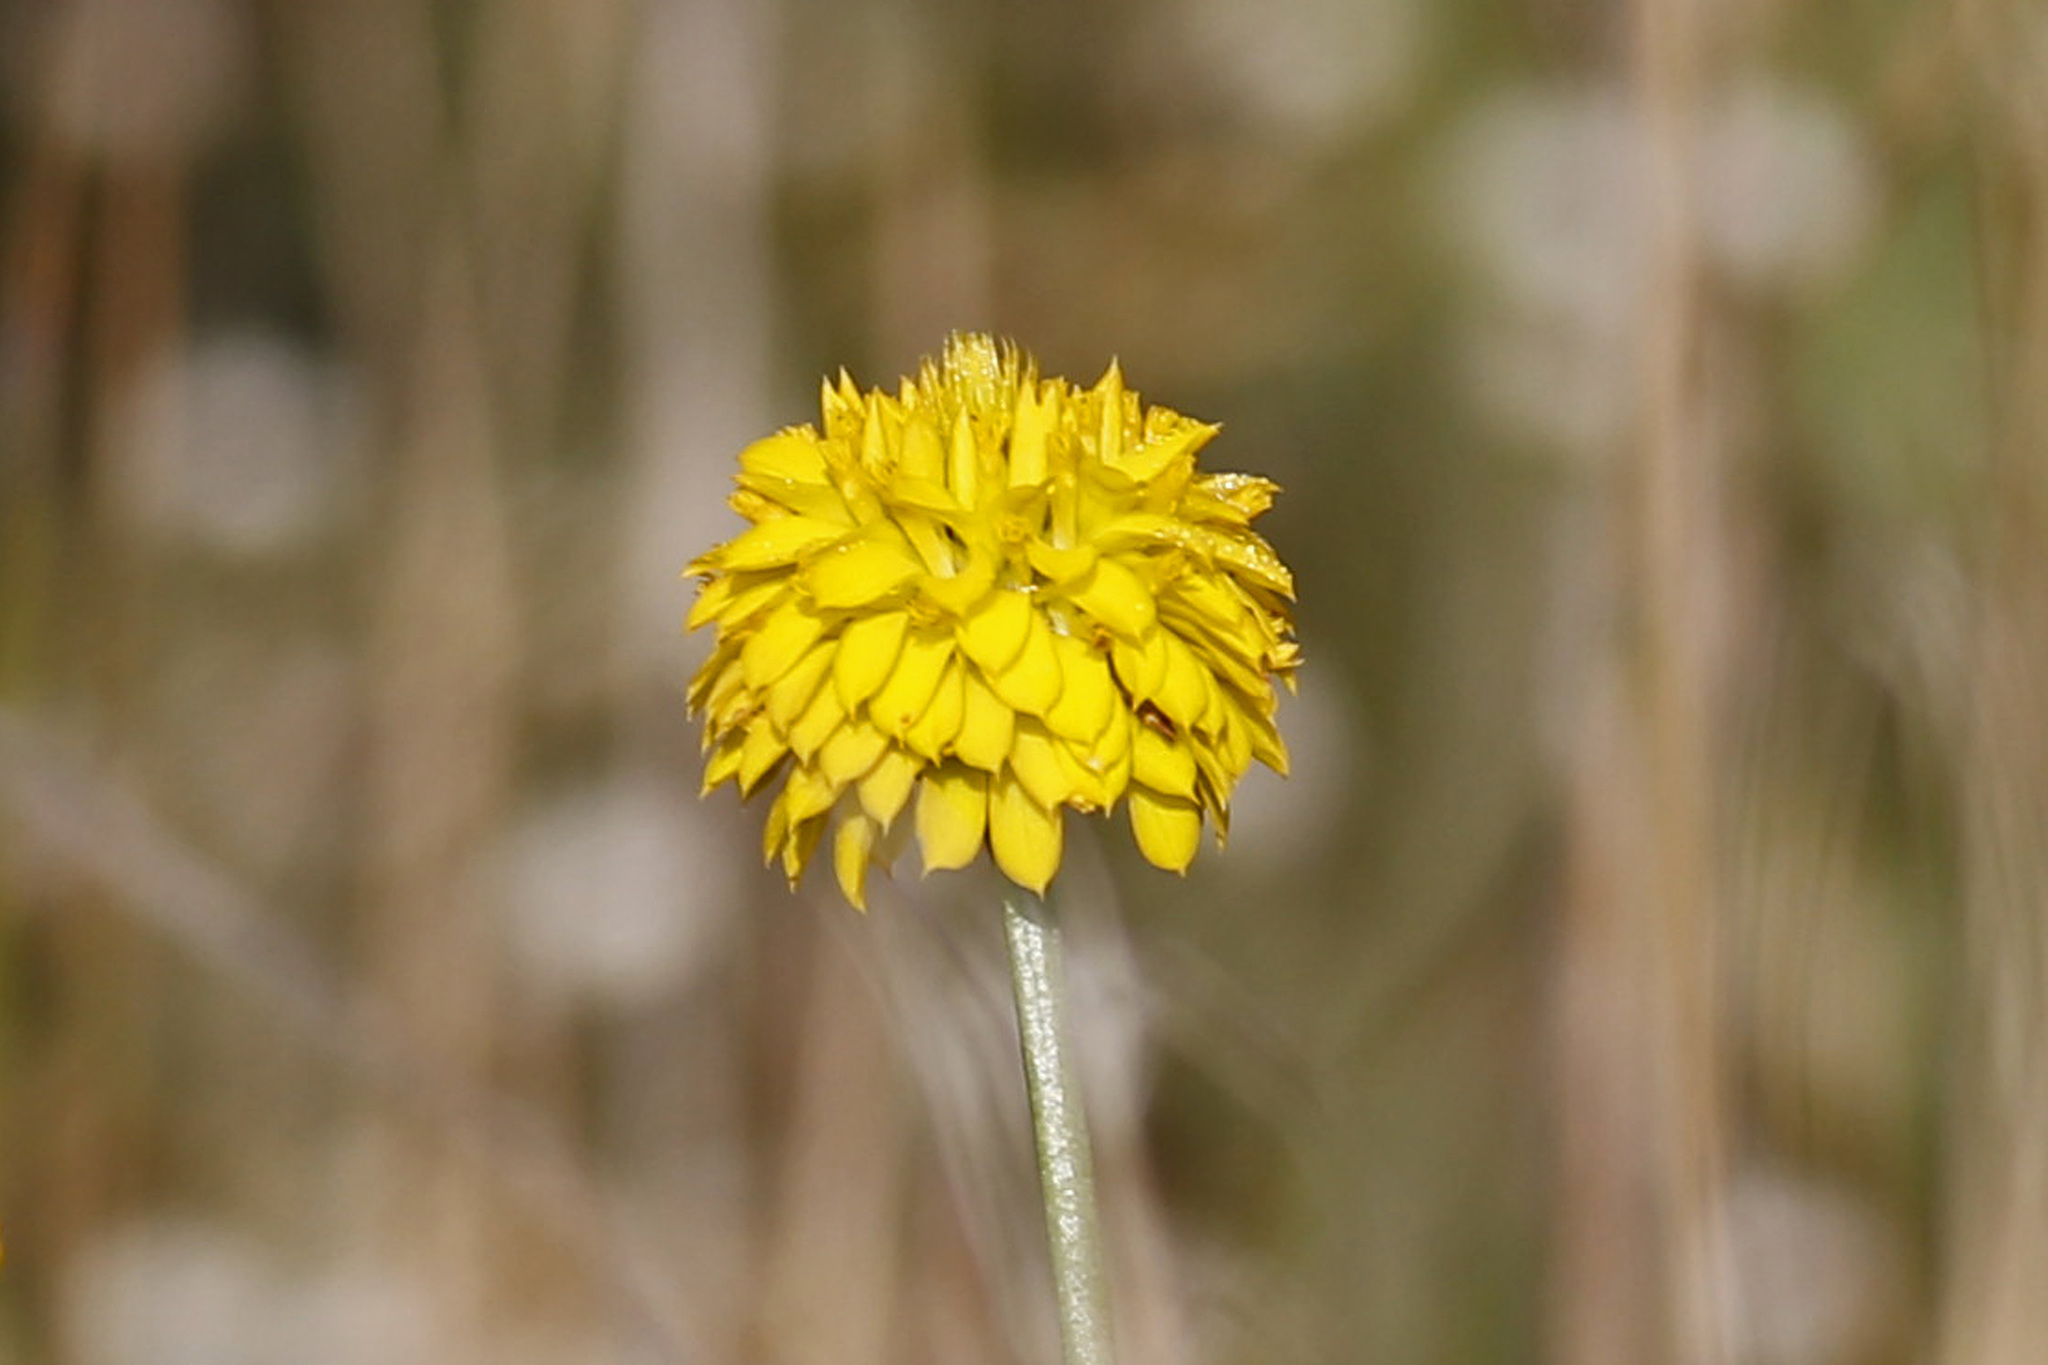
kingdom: Plantae
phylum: Tracheophyta
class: Magnoliopsida
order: Fabales
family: Polygalaceae
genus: Polygala
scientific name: Polygala rugelii
